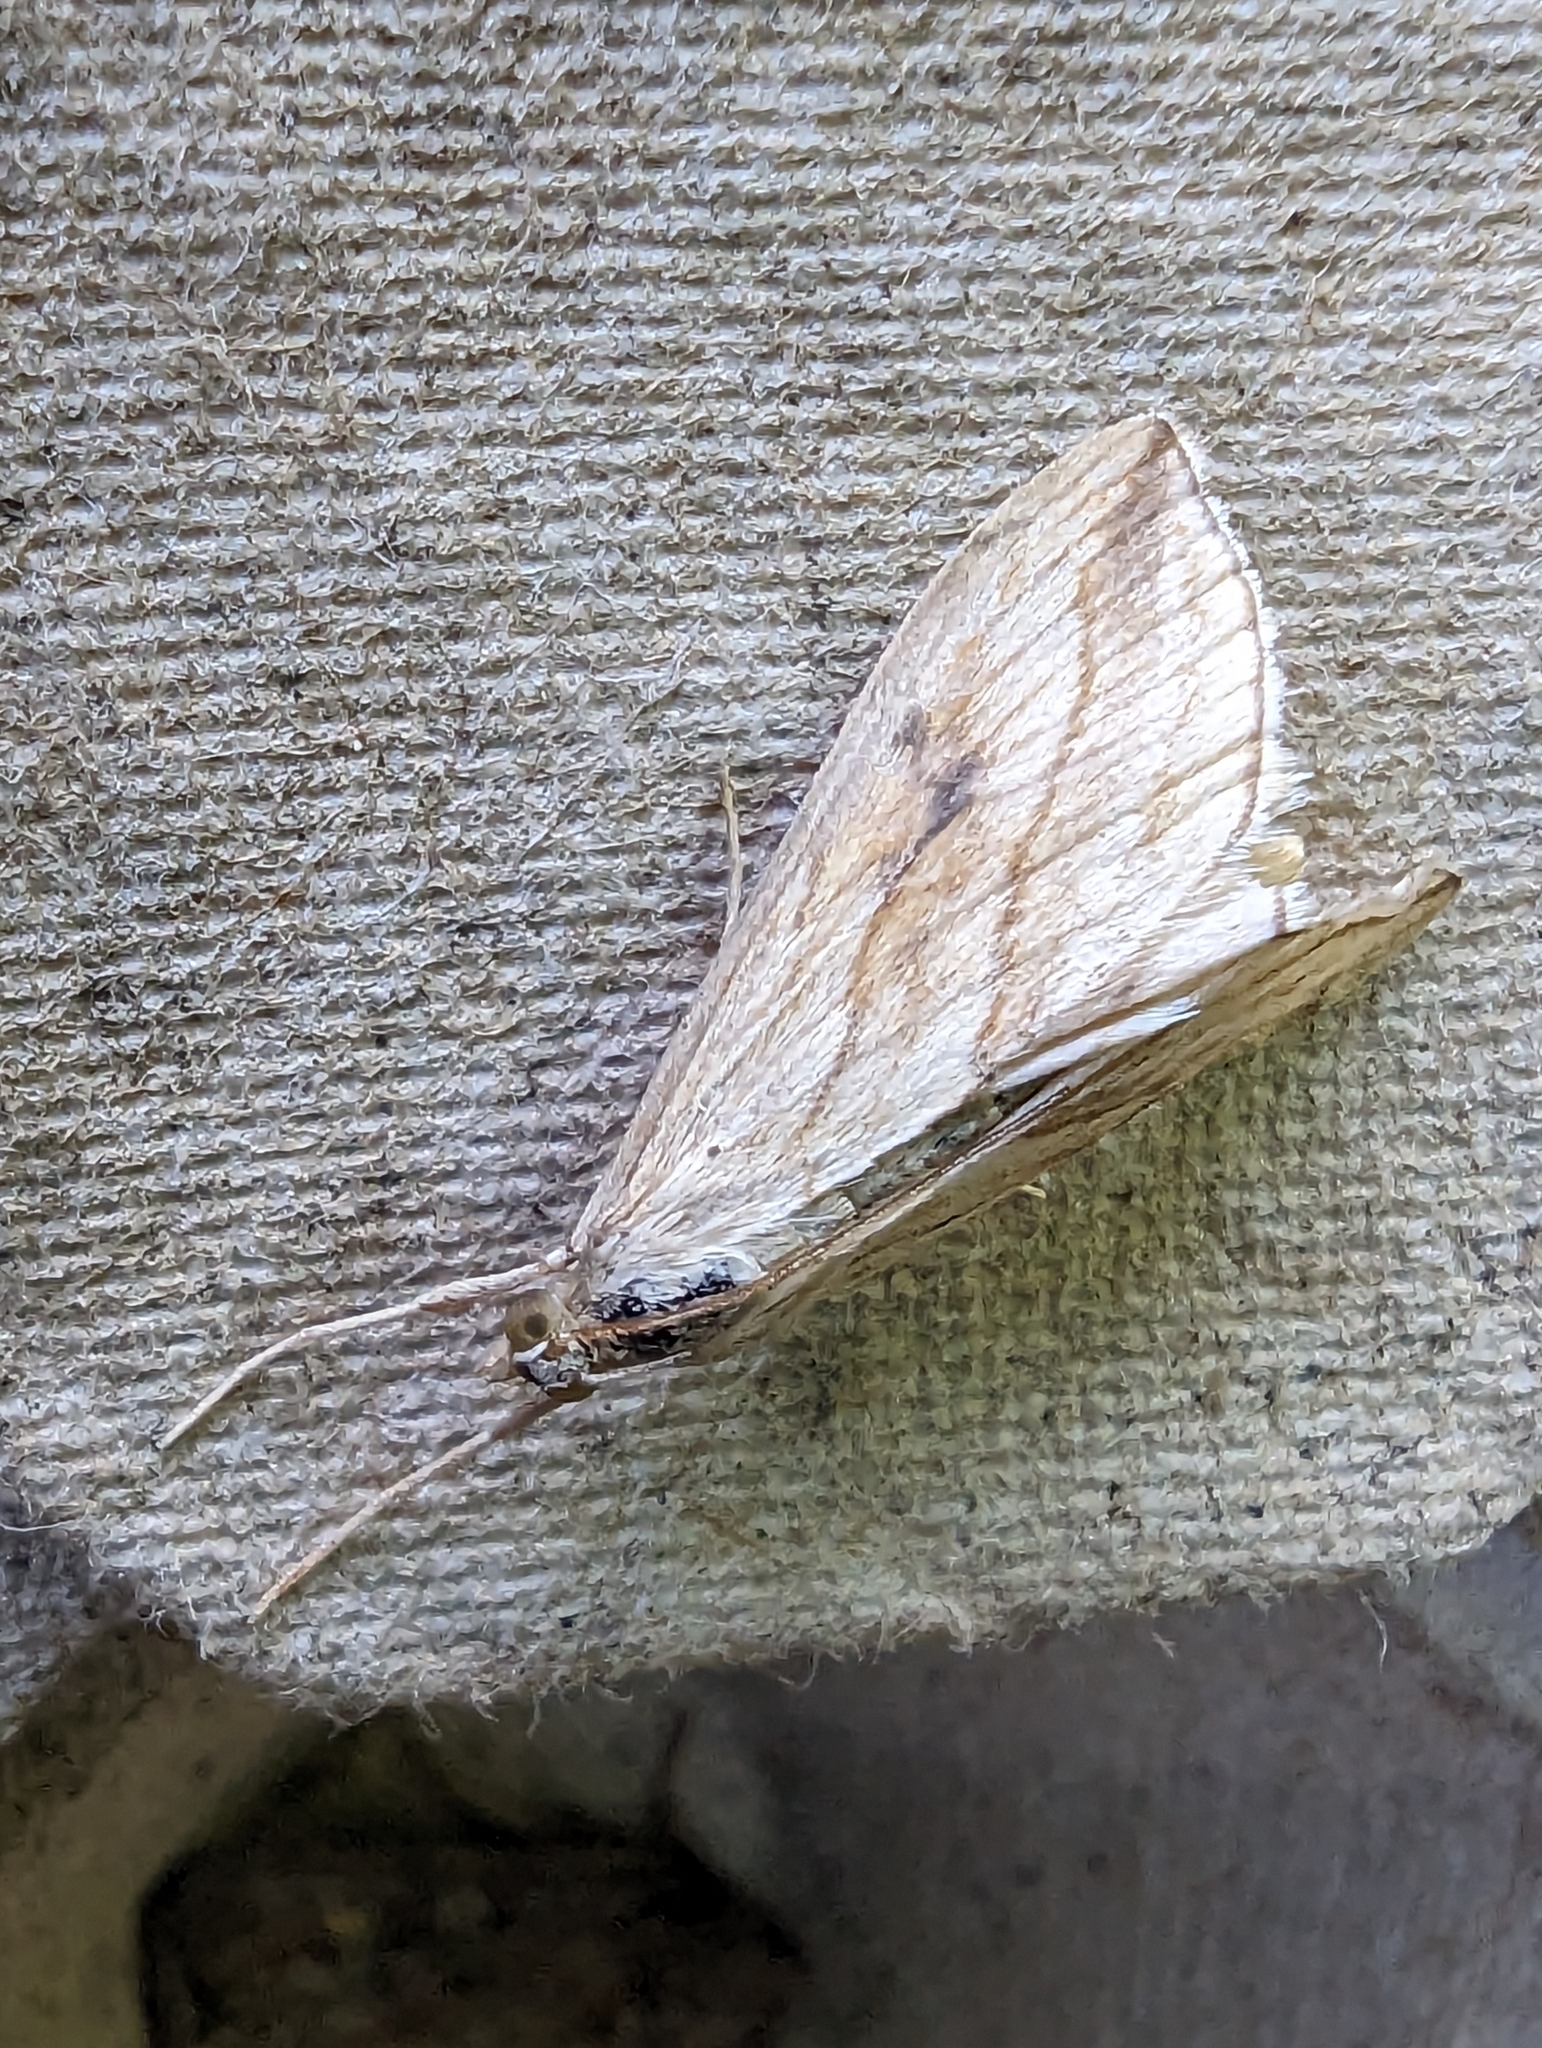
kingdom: Animalia
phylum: Arthropoda
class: Insecta
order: Lepidoptera
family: Crambidae
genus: Evergestis
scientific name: Evergestis forficalis
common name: Garden pebble
